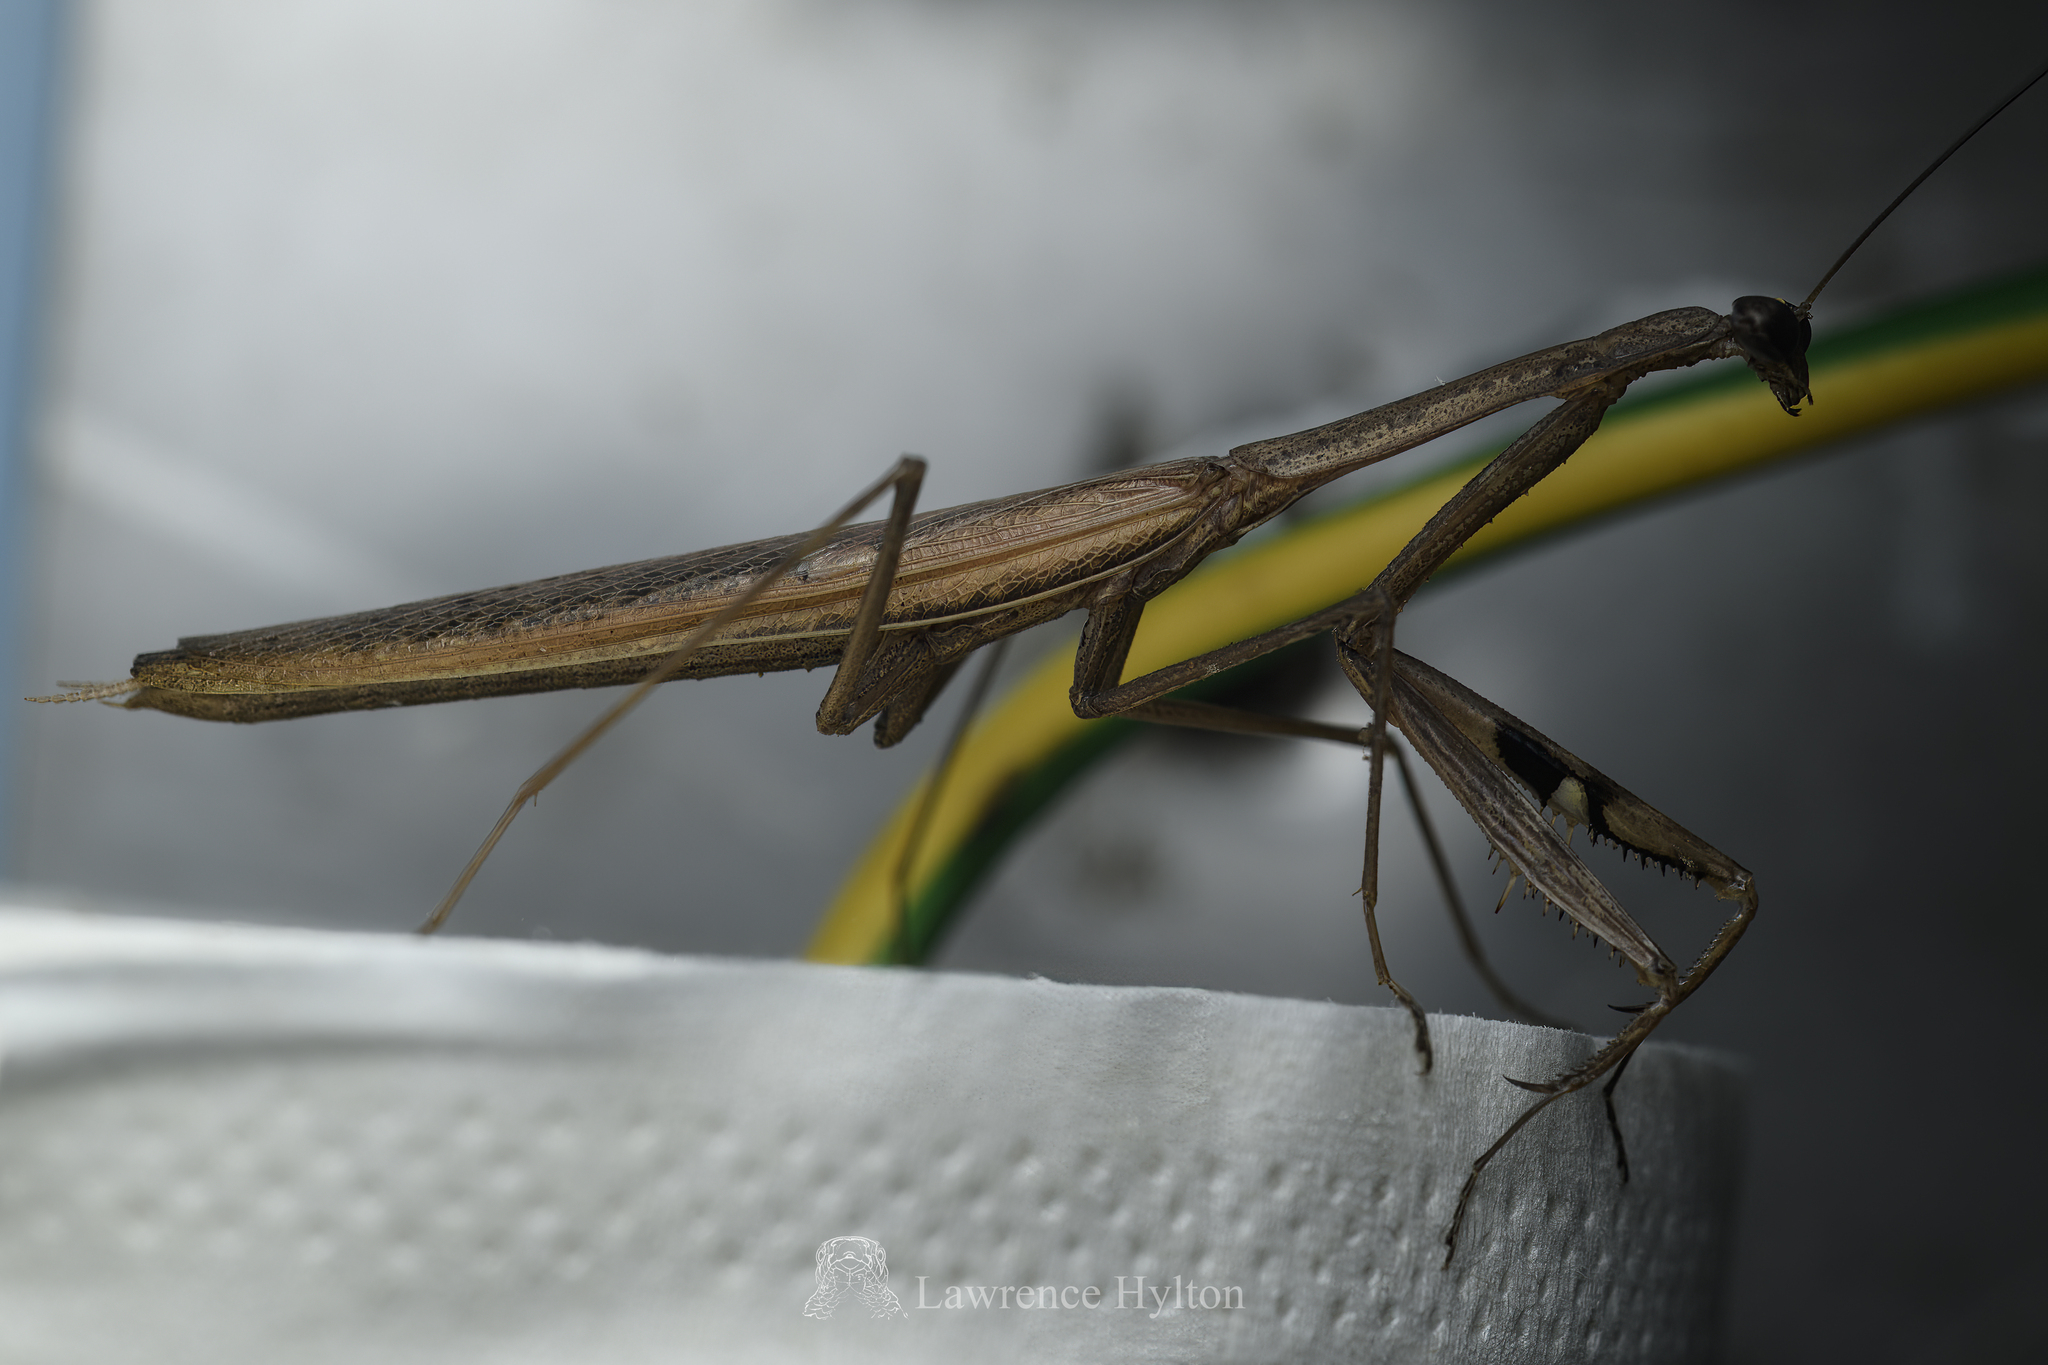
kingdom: Animalia
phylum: Arthropoda
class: Insecta
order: Mantodea
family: Mantidae
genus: Statilia
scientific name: Statilia flavobrunnea
